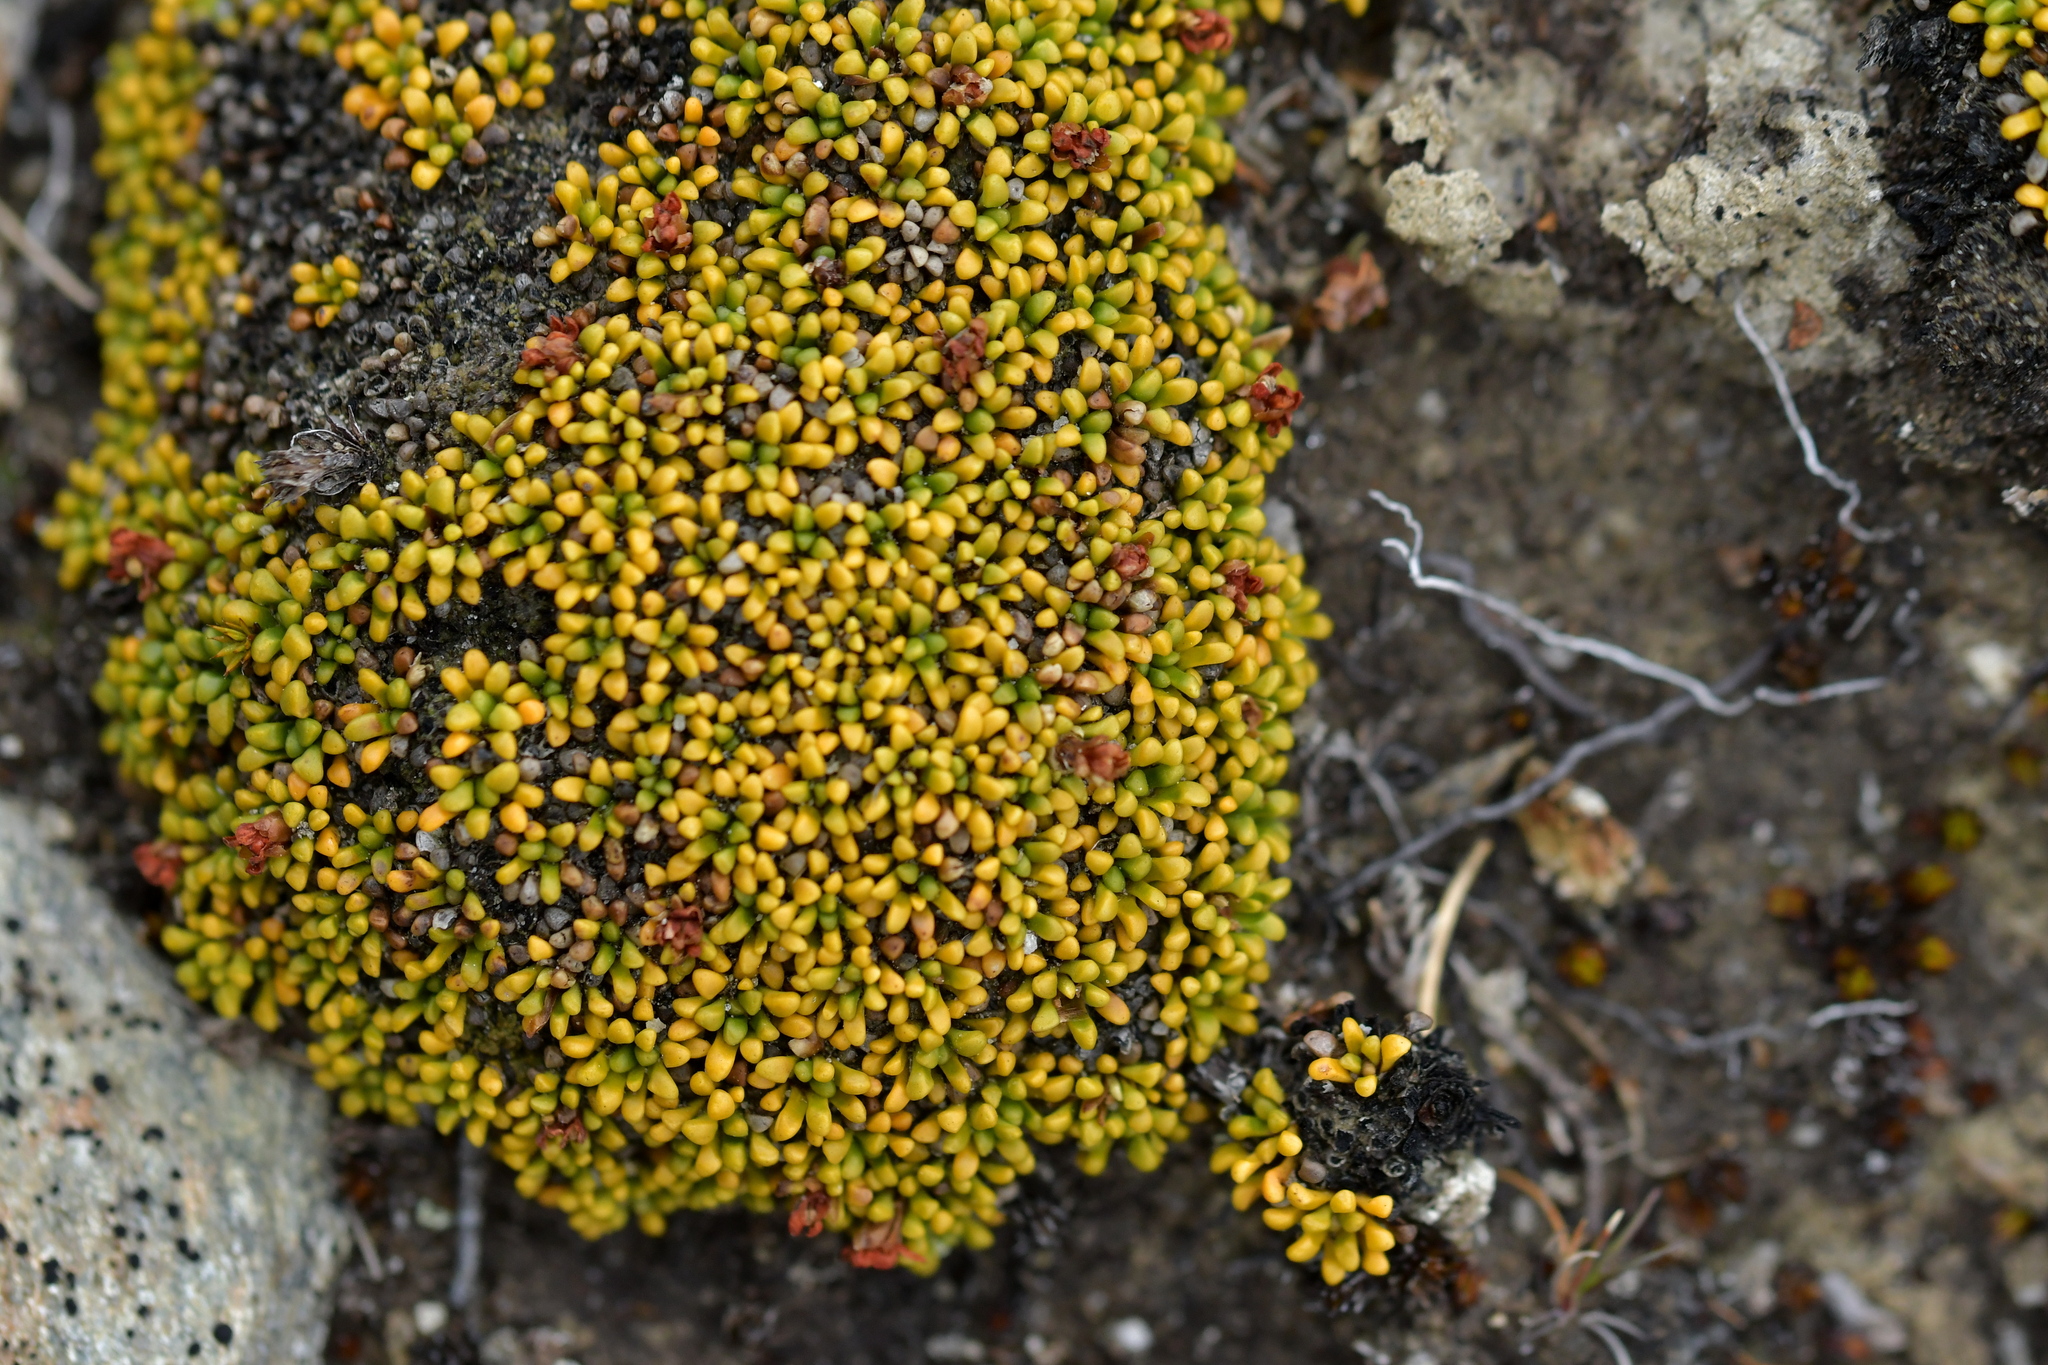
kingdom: Plantae
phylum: Tracheophyta
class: Magnoliopsida
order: Asterales
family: Stylidiaceae
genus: Phyllachne
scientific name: Phyllachne rubra
